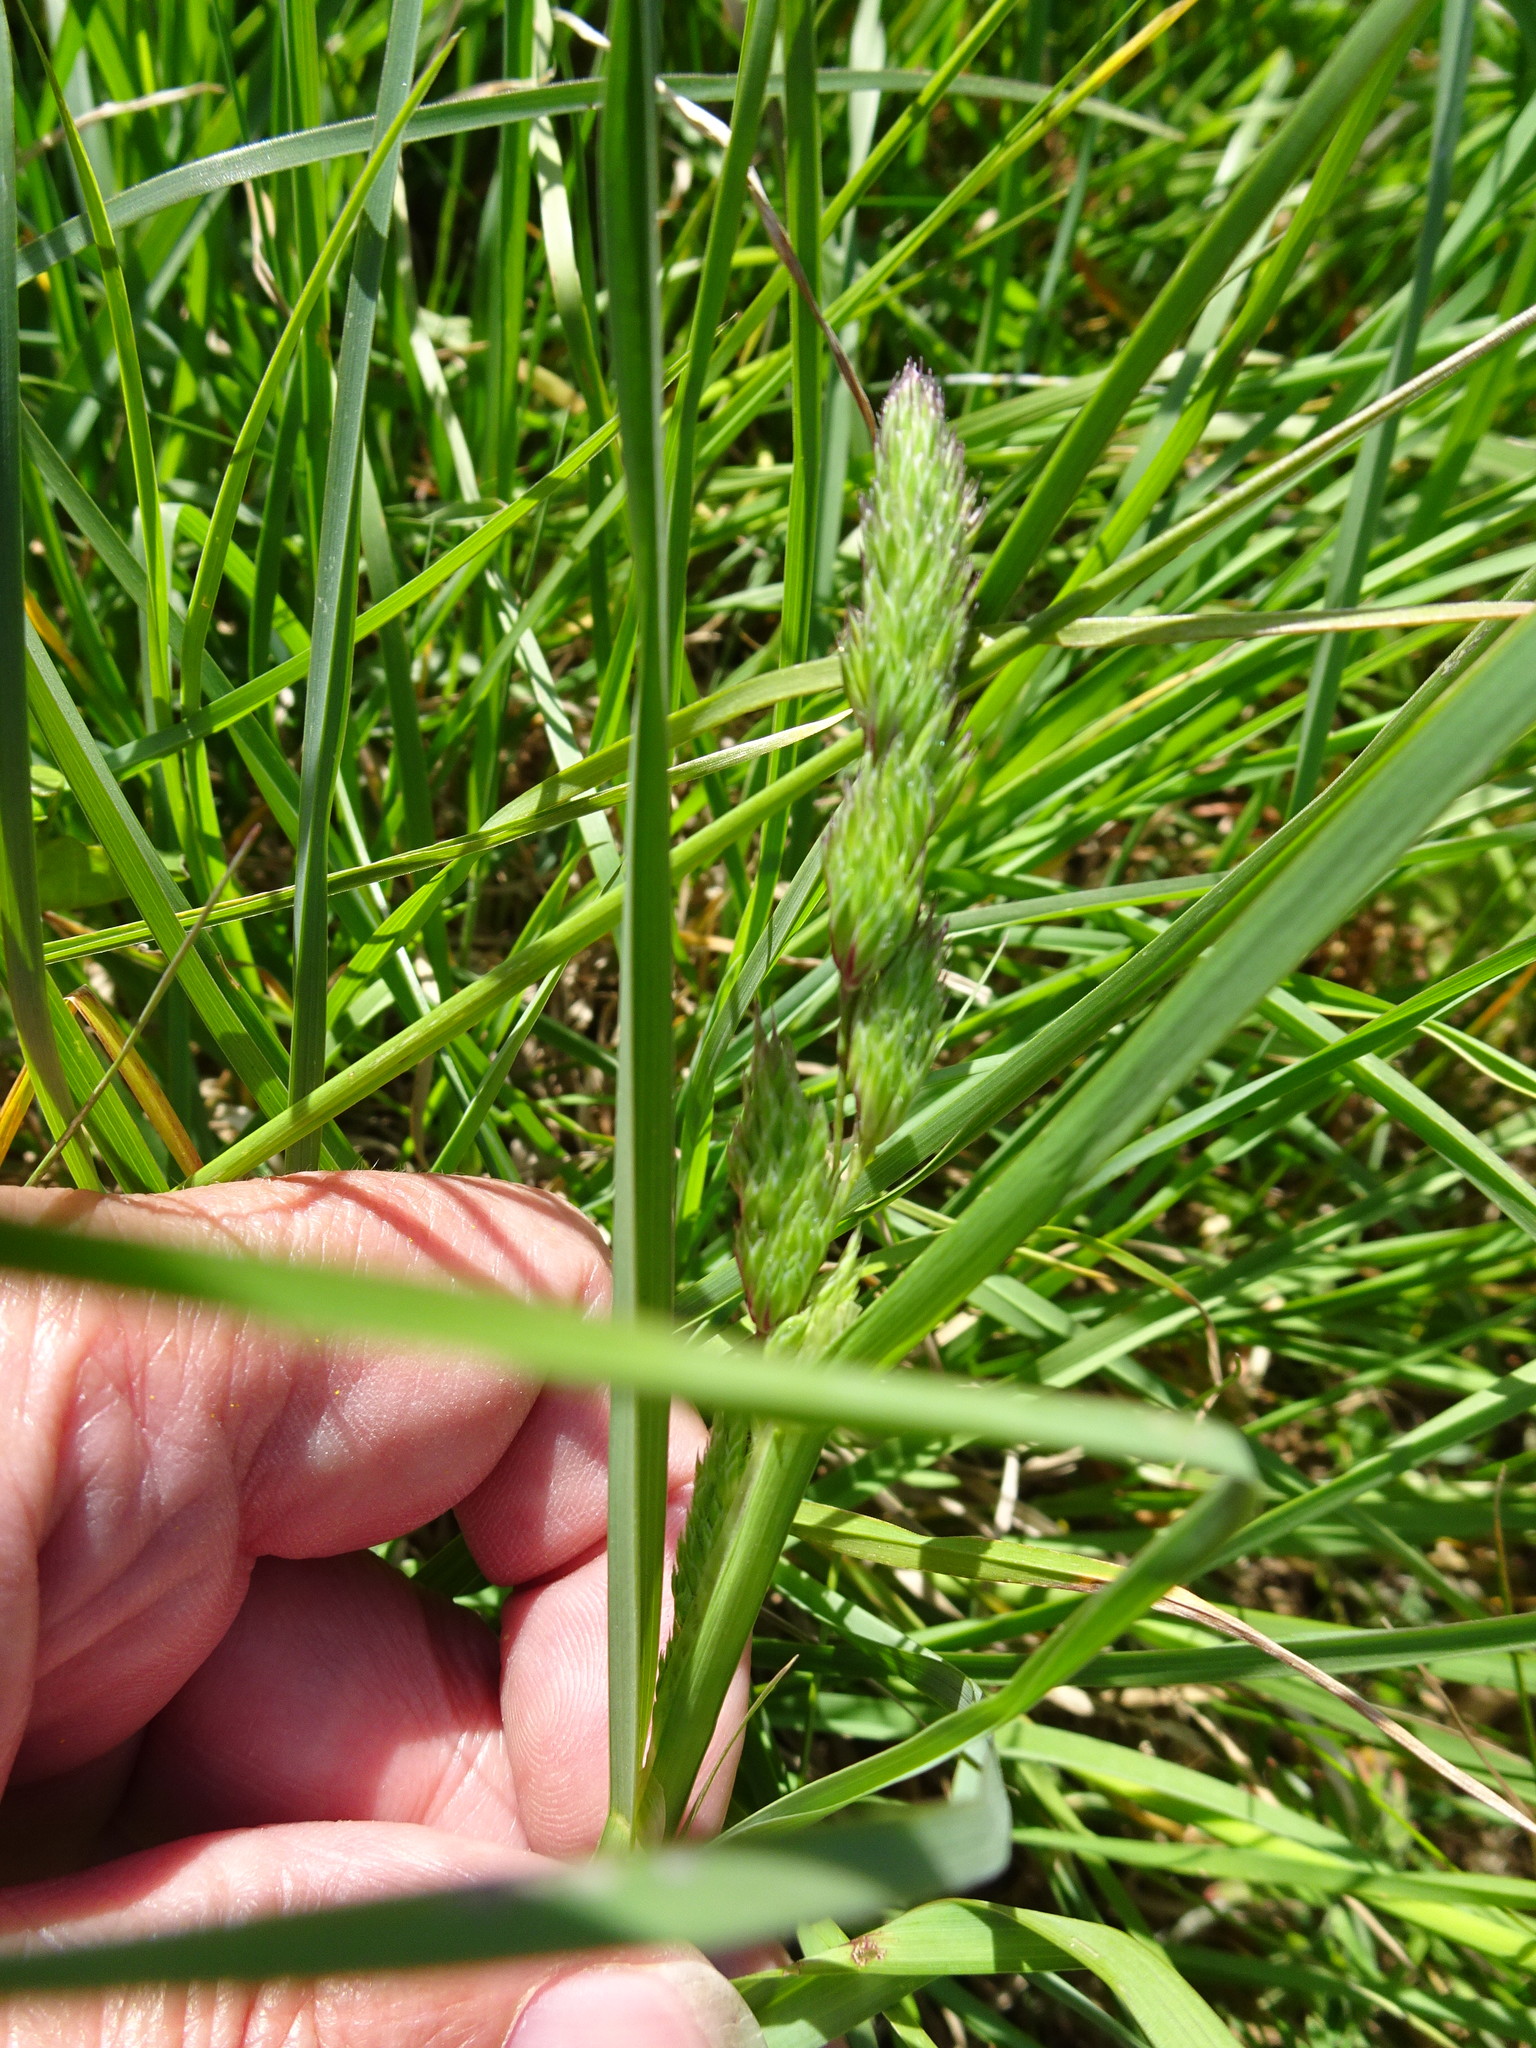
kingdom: Plantae
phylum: Tracheophyta
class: Liliopsida
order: Poales
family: Poaceae
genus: Dactylis
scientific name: Dactylis glomerata
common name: Orchardgrass
